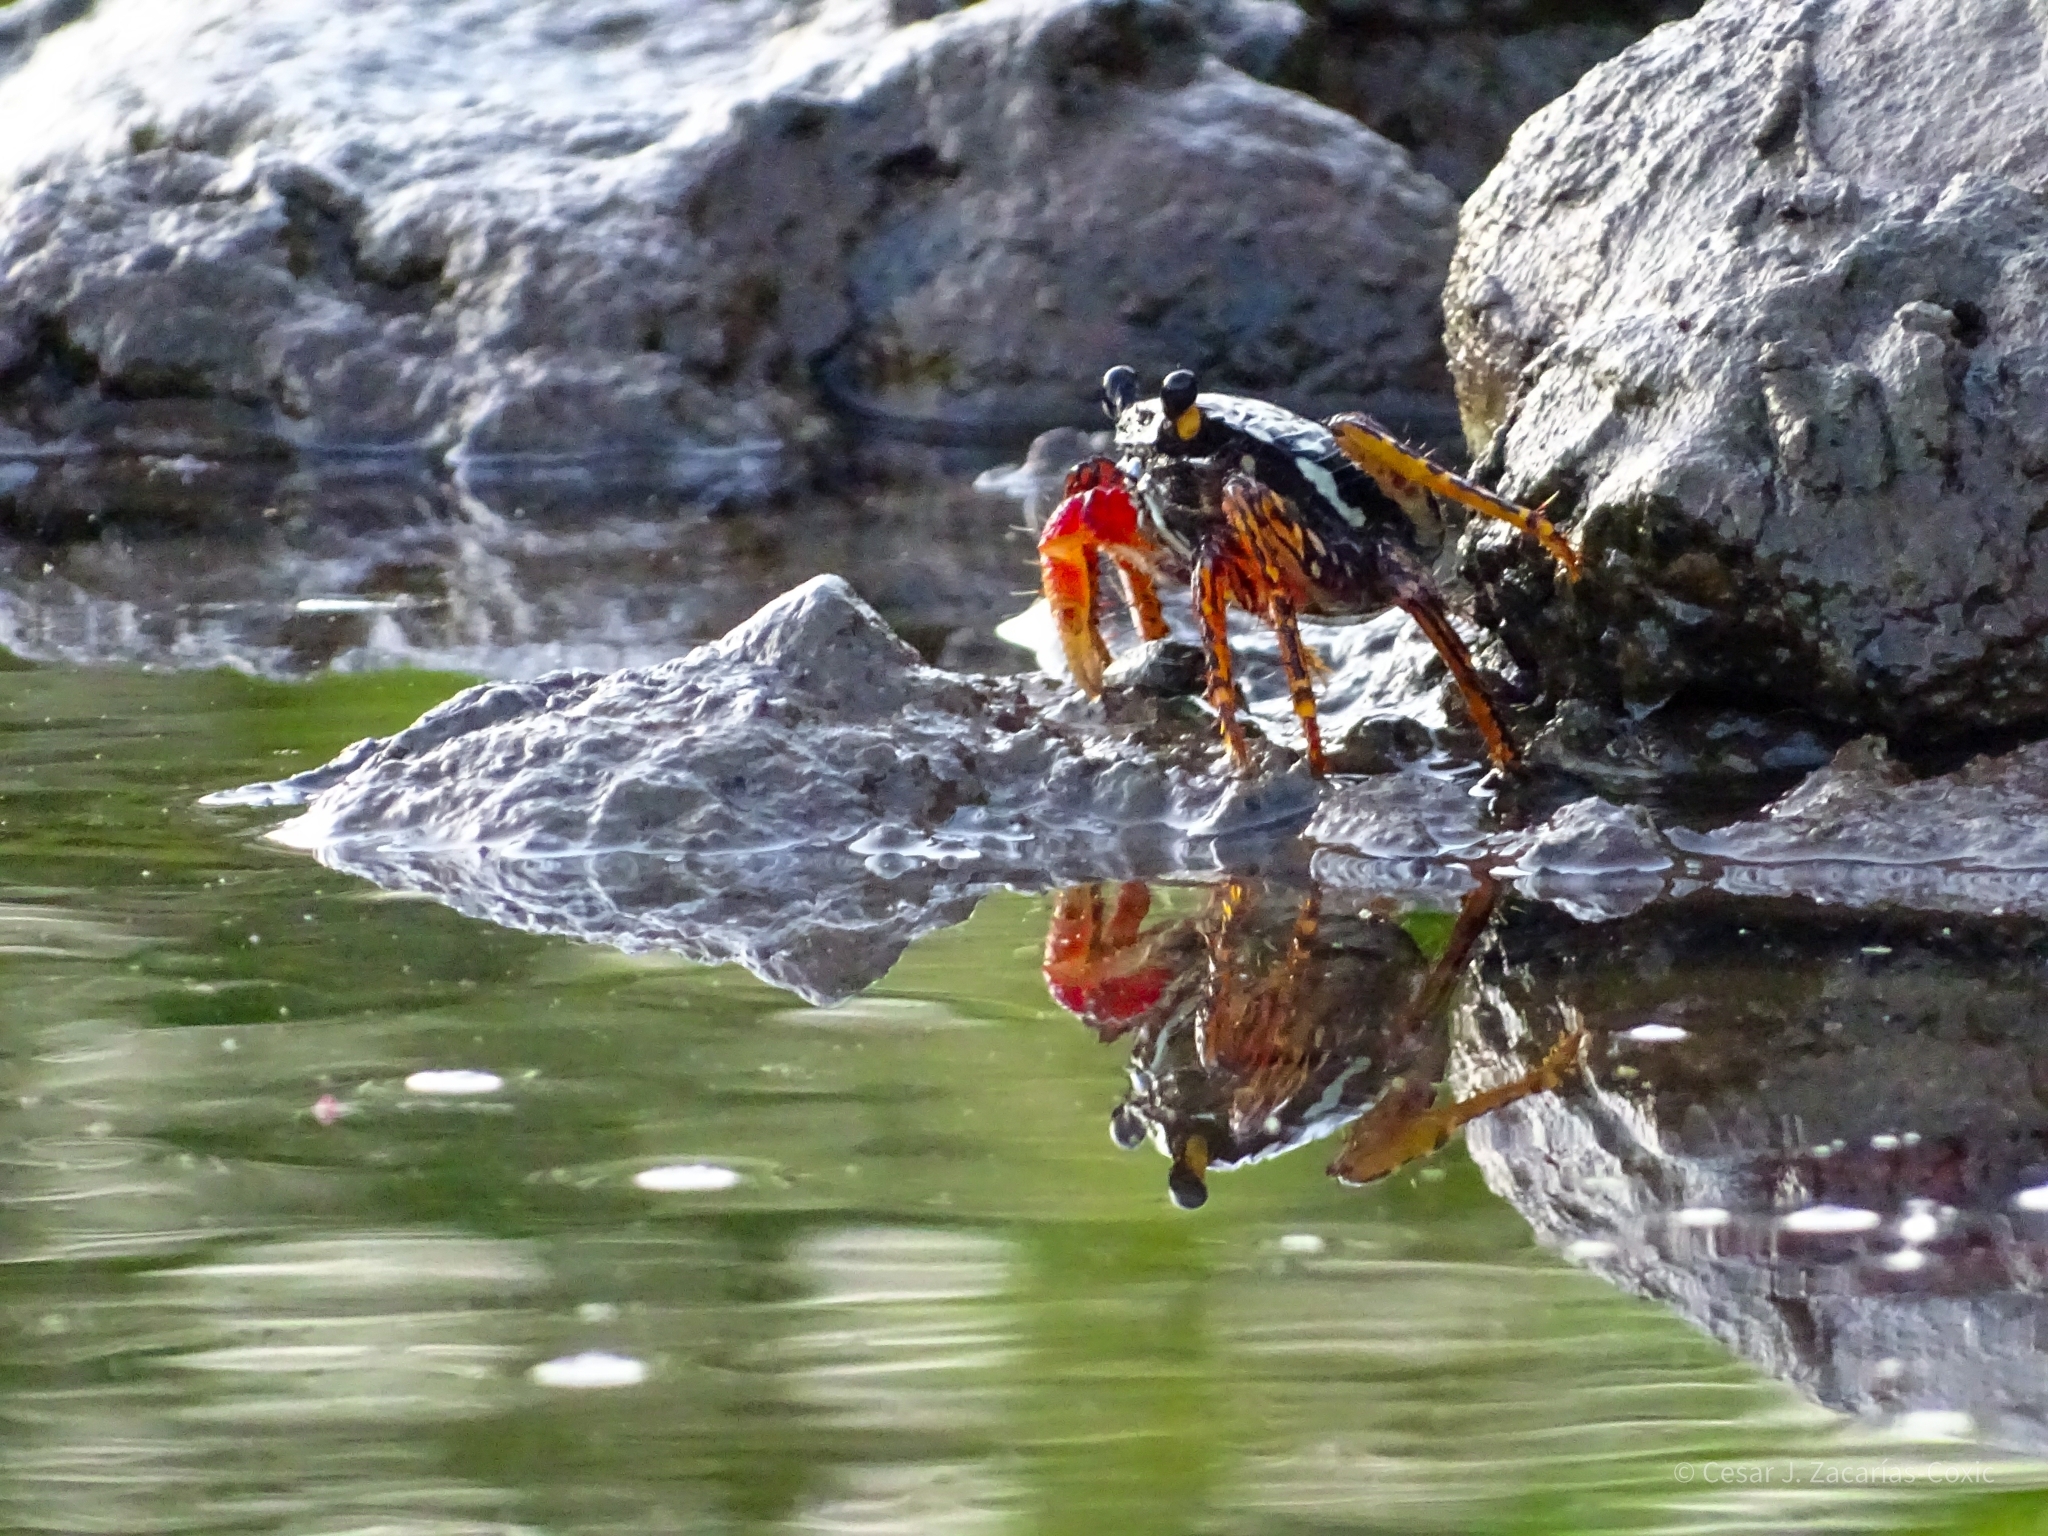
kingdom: Animalia
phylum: Arthropoda
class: Malacostraca
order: Decapoda
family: Grapsidae
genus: Goniopsis
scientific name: Goniopsis pulchra
